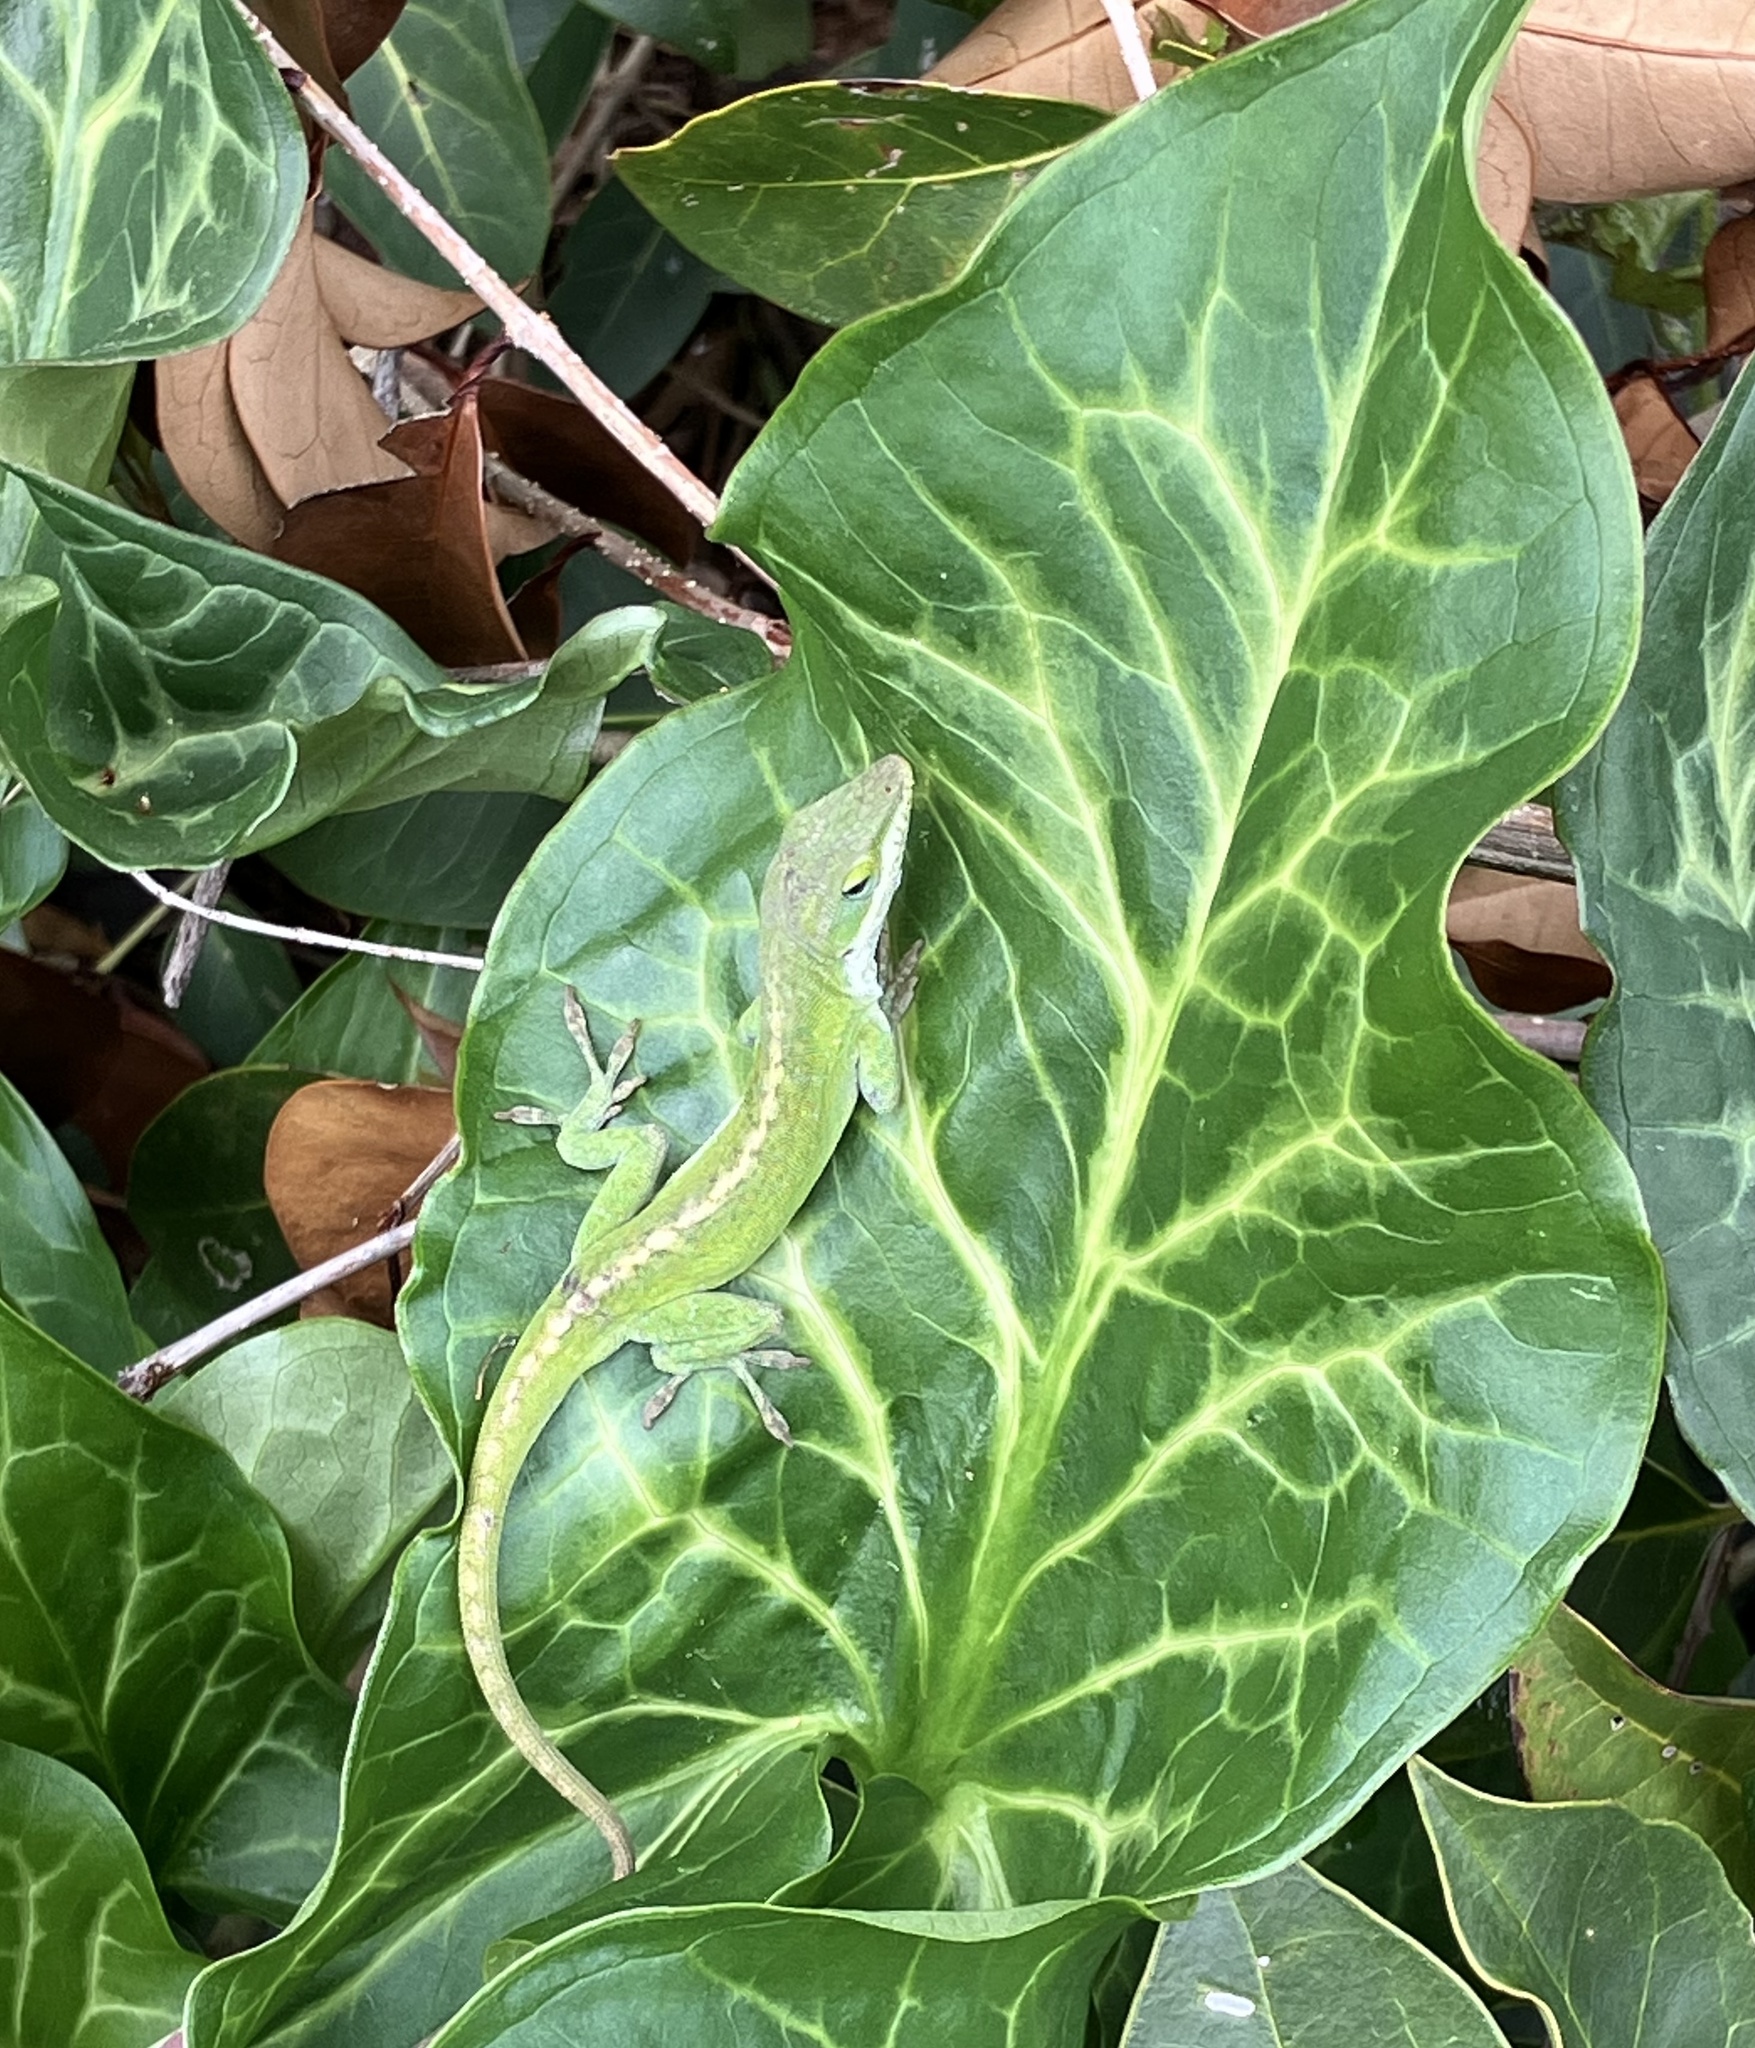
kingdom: Animalia
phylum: Chordata
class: Squamata
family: Dactyloidae
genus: Anolis
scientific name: Anolis carolinensis
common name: Green anole
